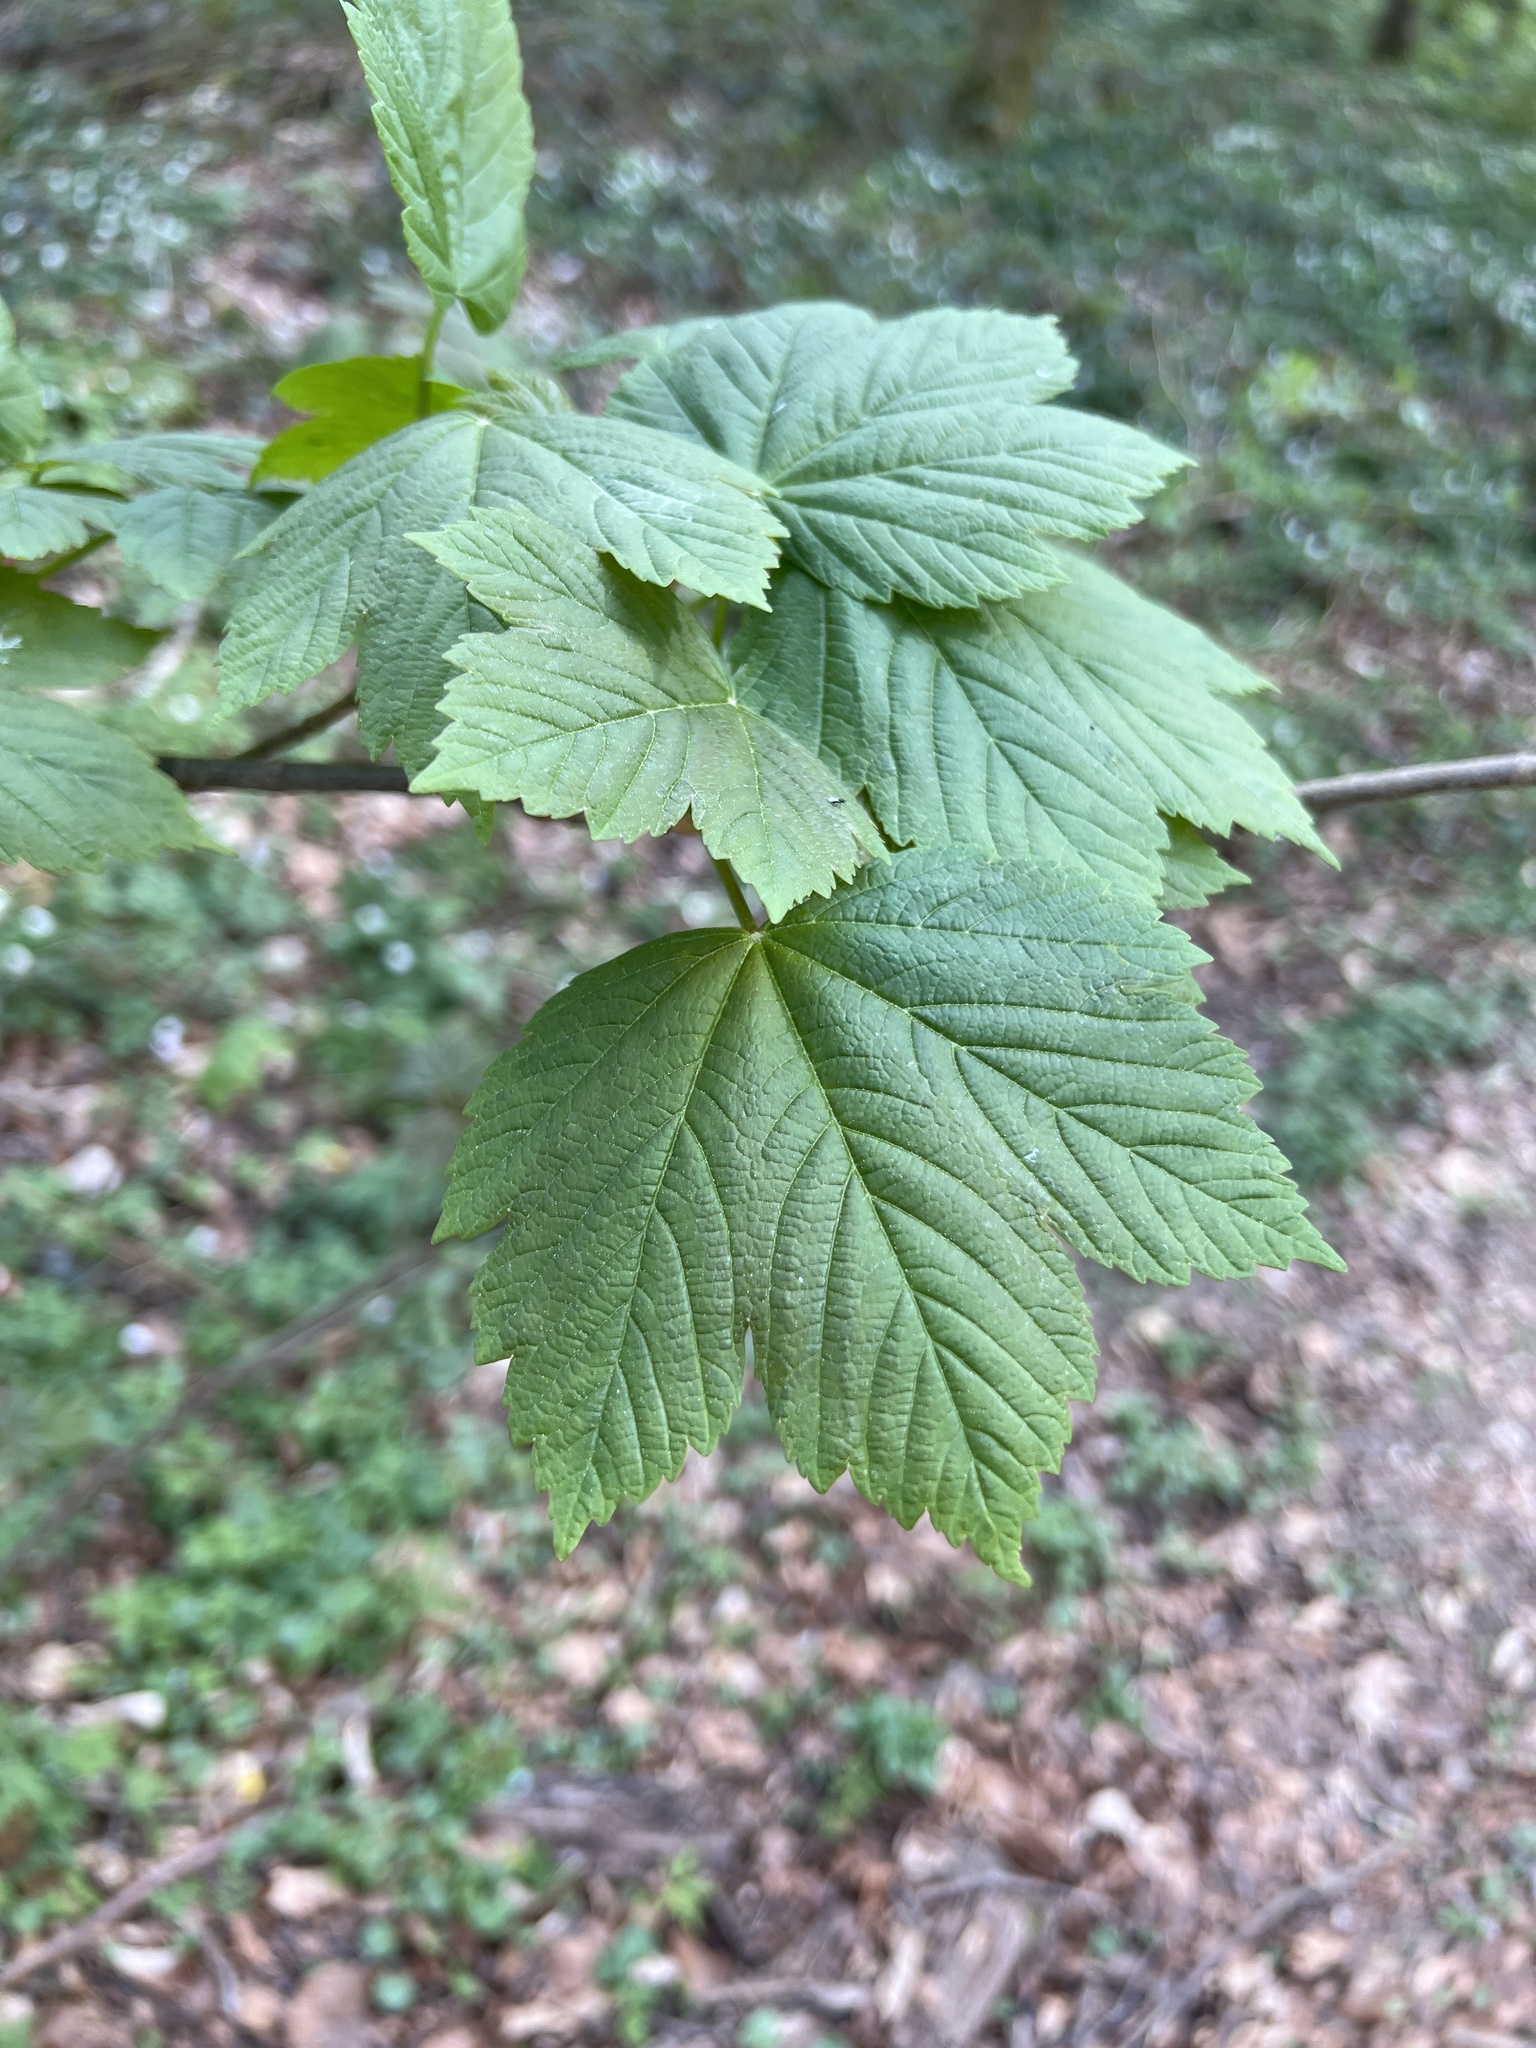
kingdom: Plantae
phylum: Tracheophyta
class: Magnoliopsida
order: Sapindales
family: Sapindaceae
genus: Acer
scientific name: Acer pseudoplatanus
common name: Sycamore
